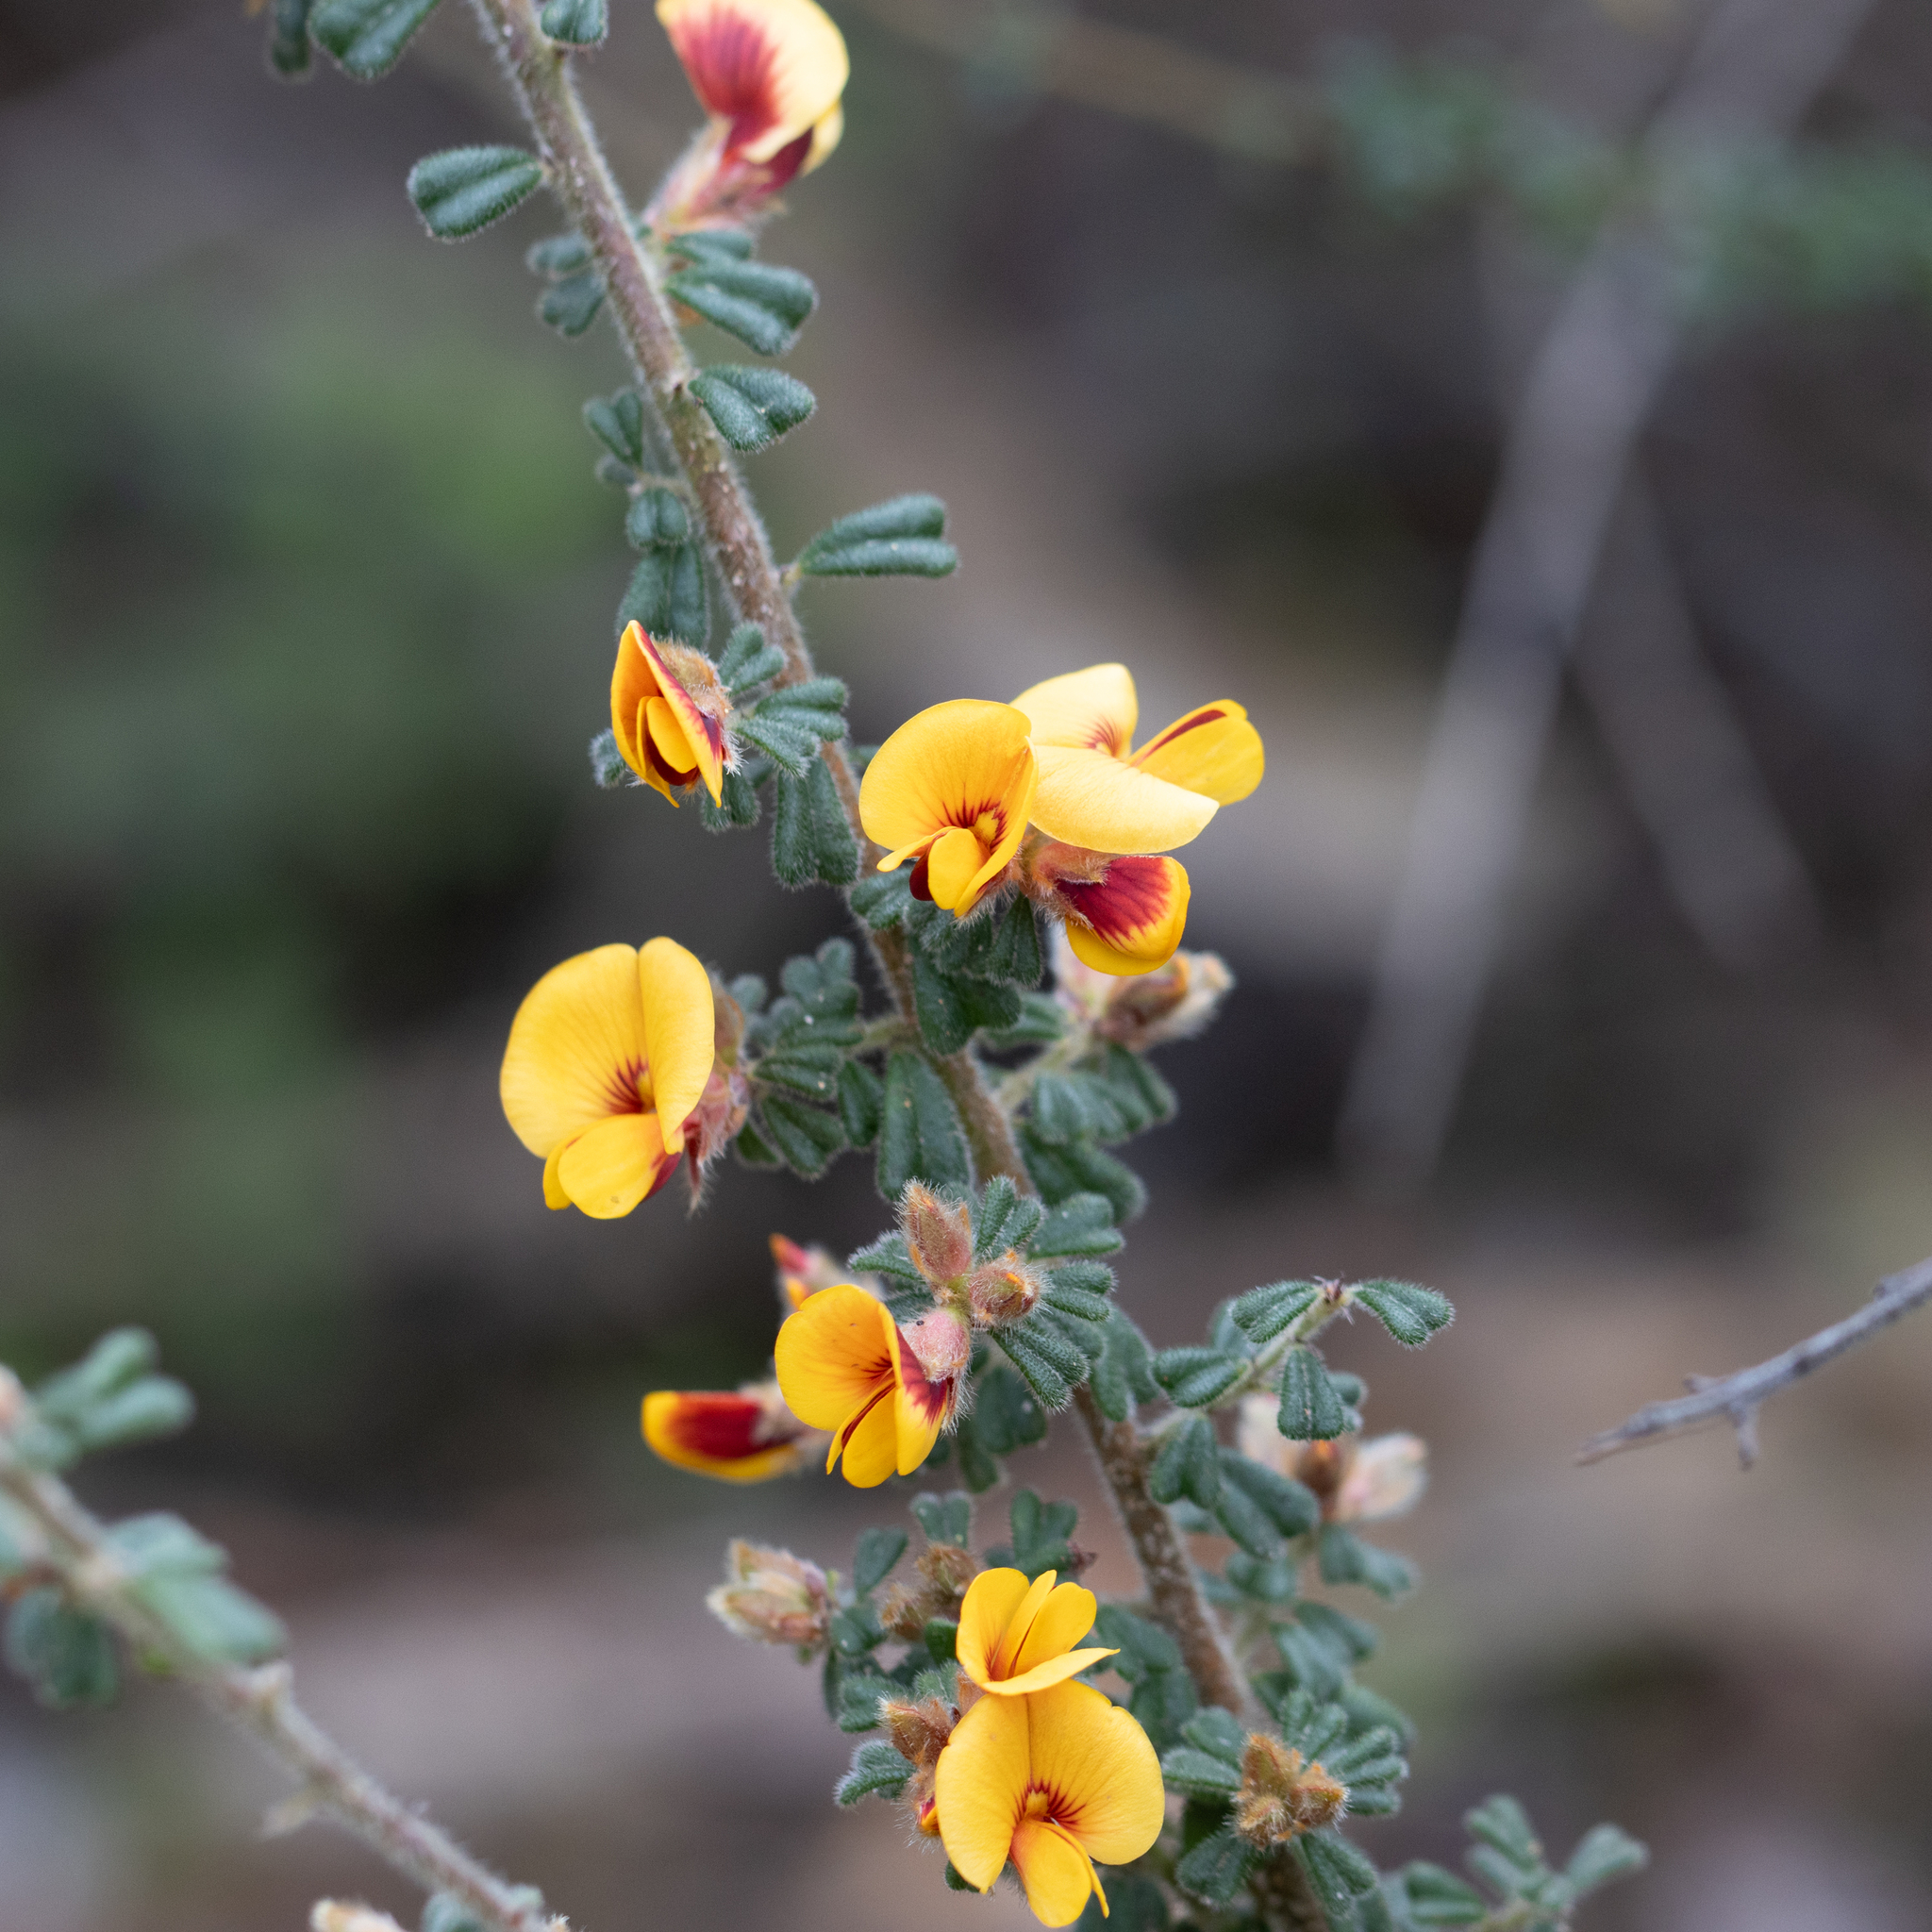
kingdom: Plantae
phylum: Tracheophyta
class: Magnoliopsida
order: Fabales
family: Fabaceae
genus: Pultenaea
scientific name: Pultenaea scabra
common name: Rough bush-pea
